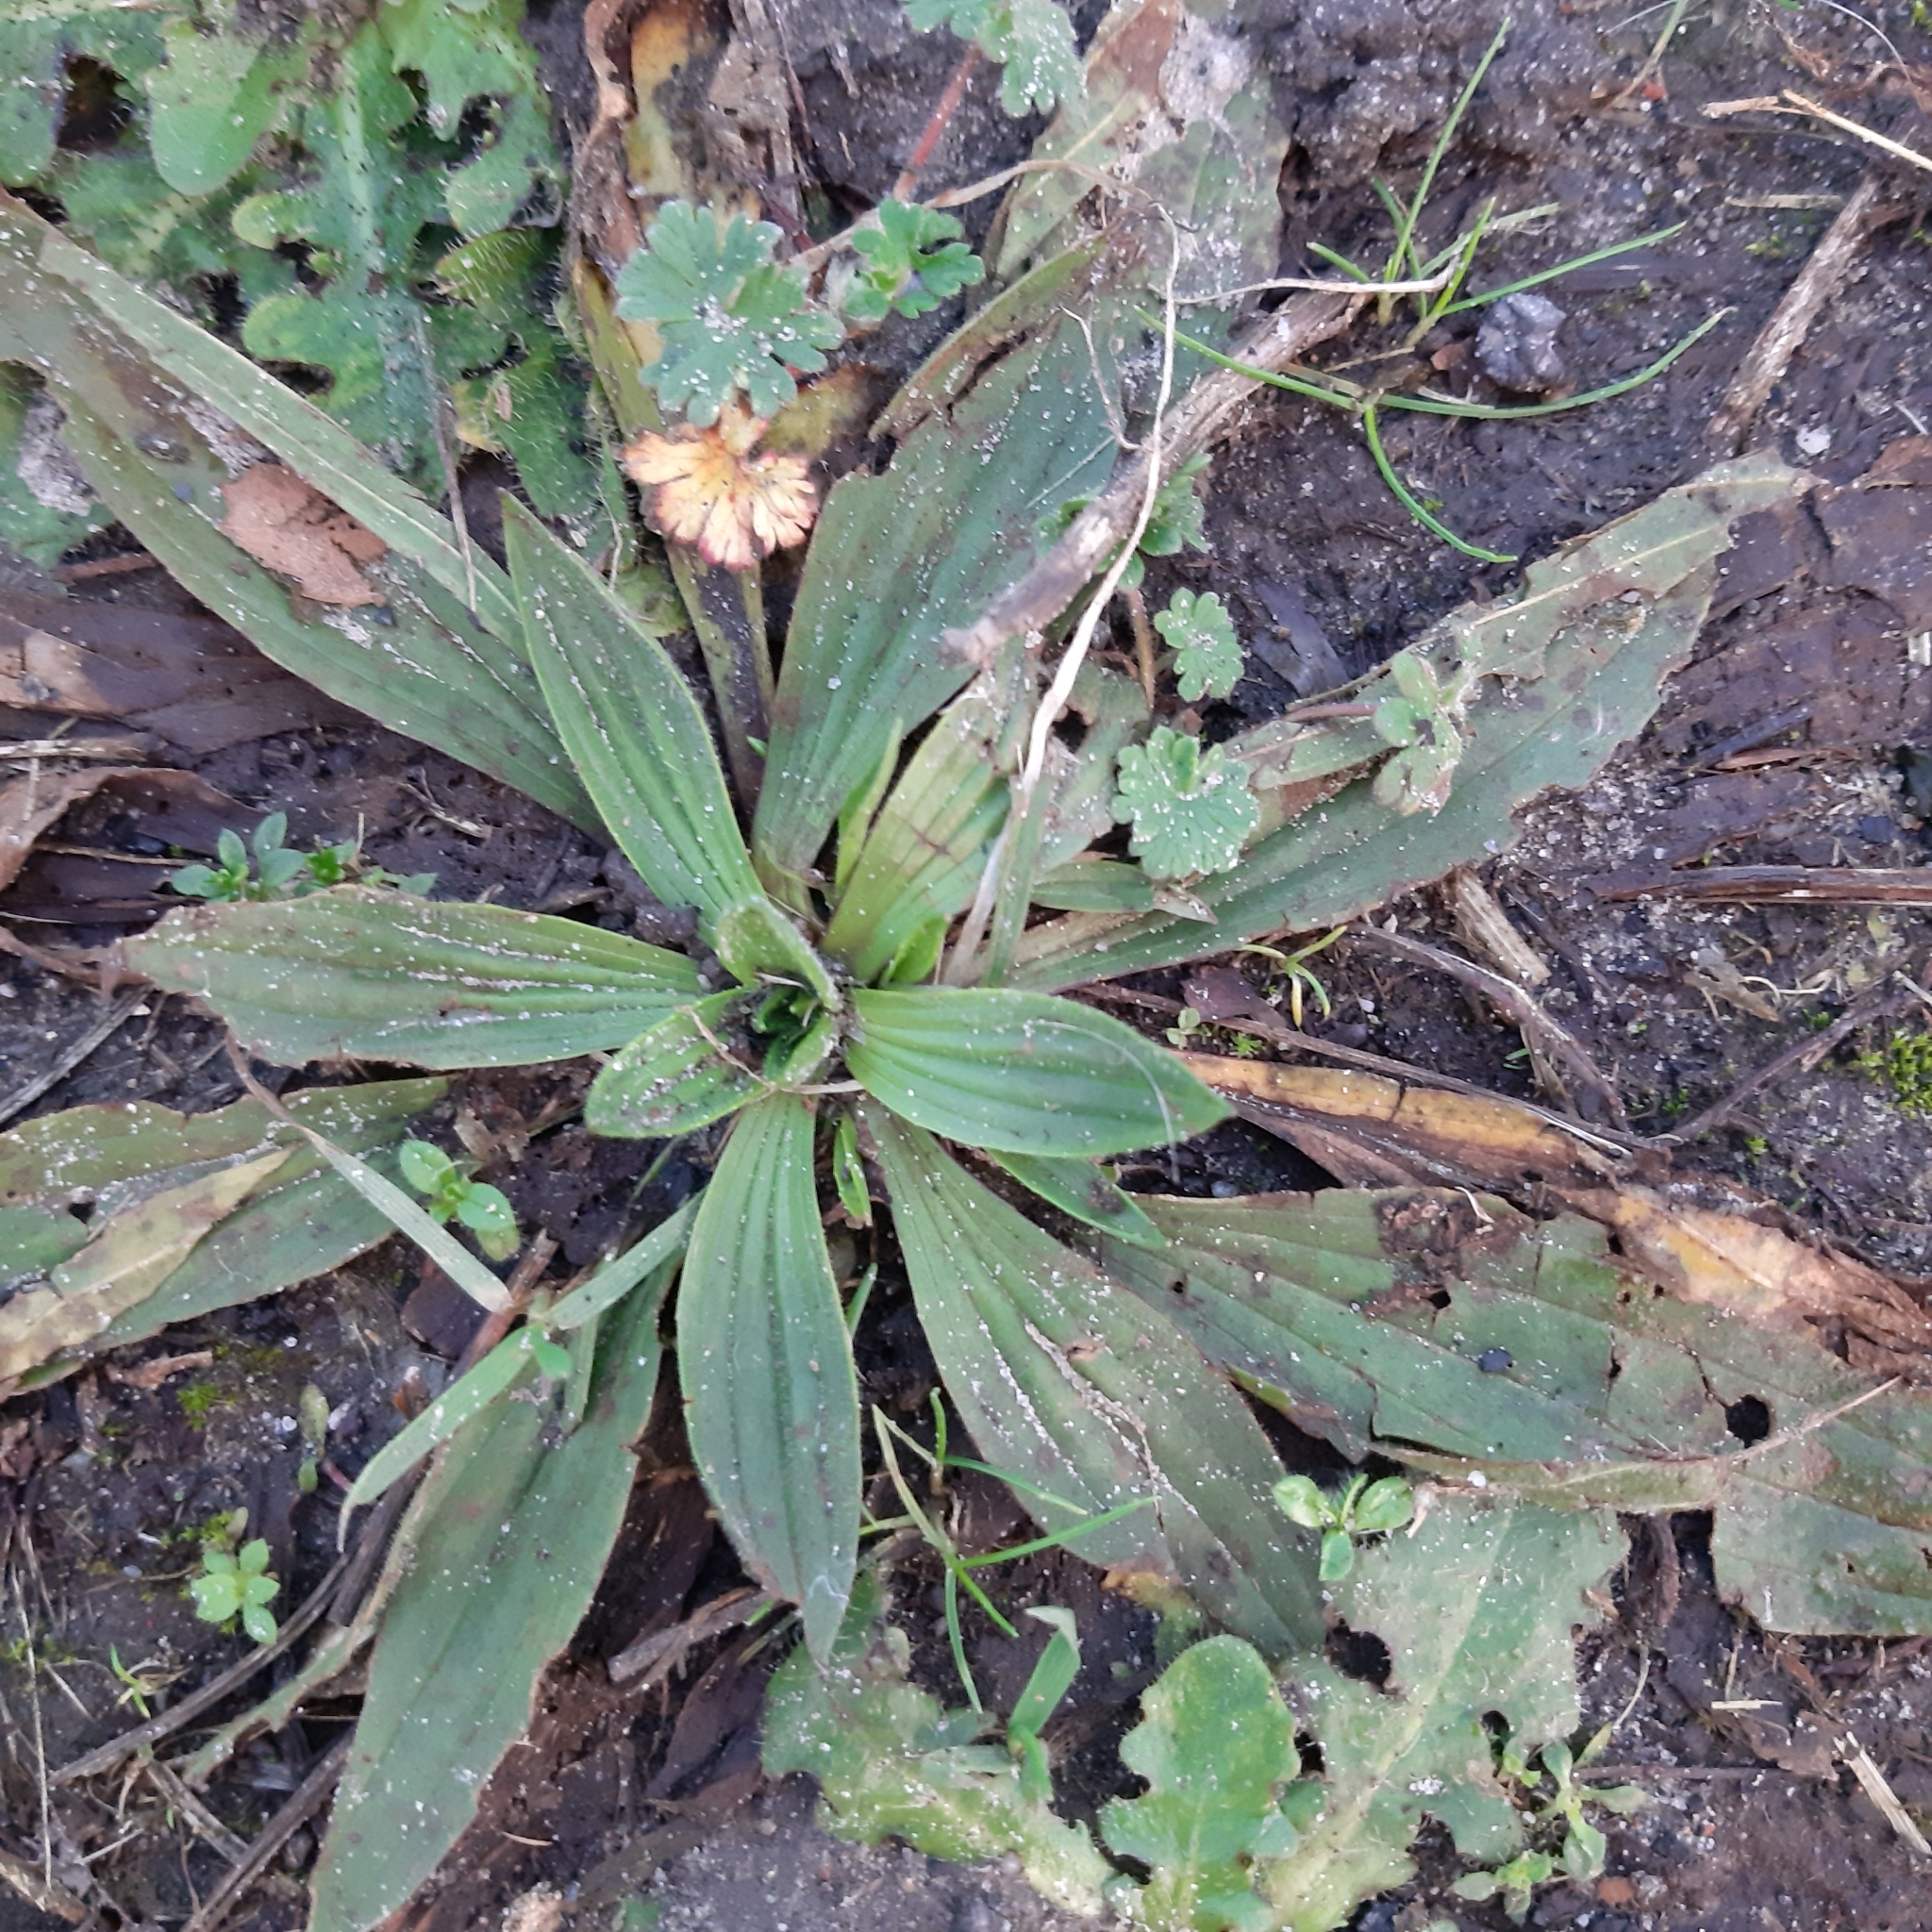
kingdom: Plantae
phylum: Tracheophyta
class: Magnoliopsida
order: Lamiales
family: Plantaginaceae
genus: Plantago
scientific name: Plantago lanceolata
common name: Ribwort plantain
